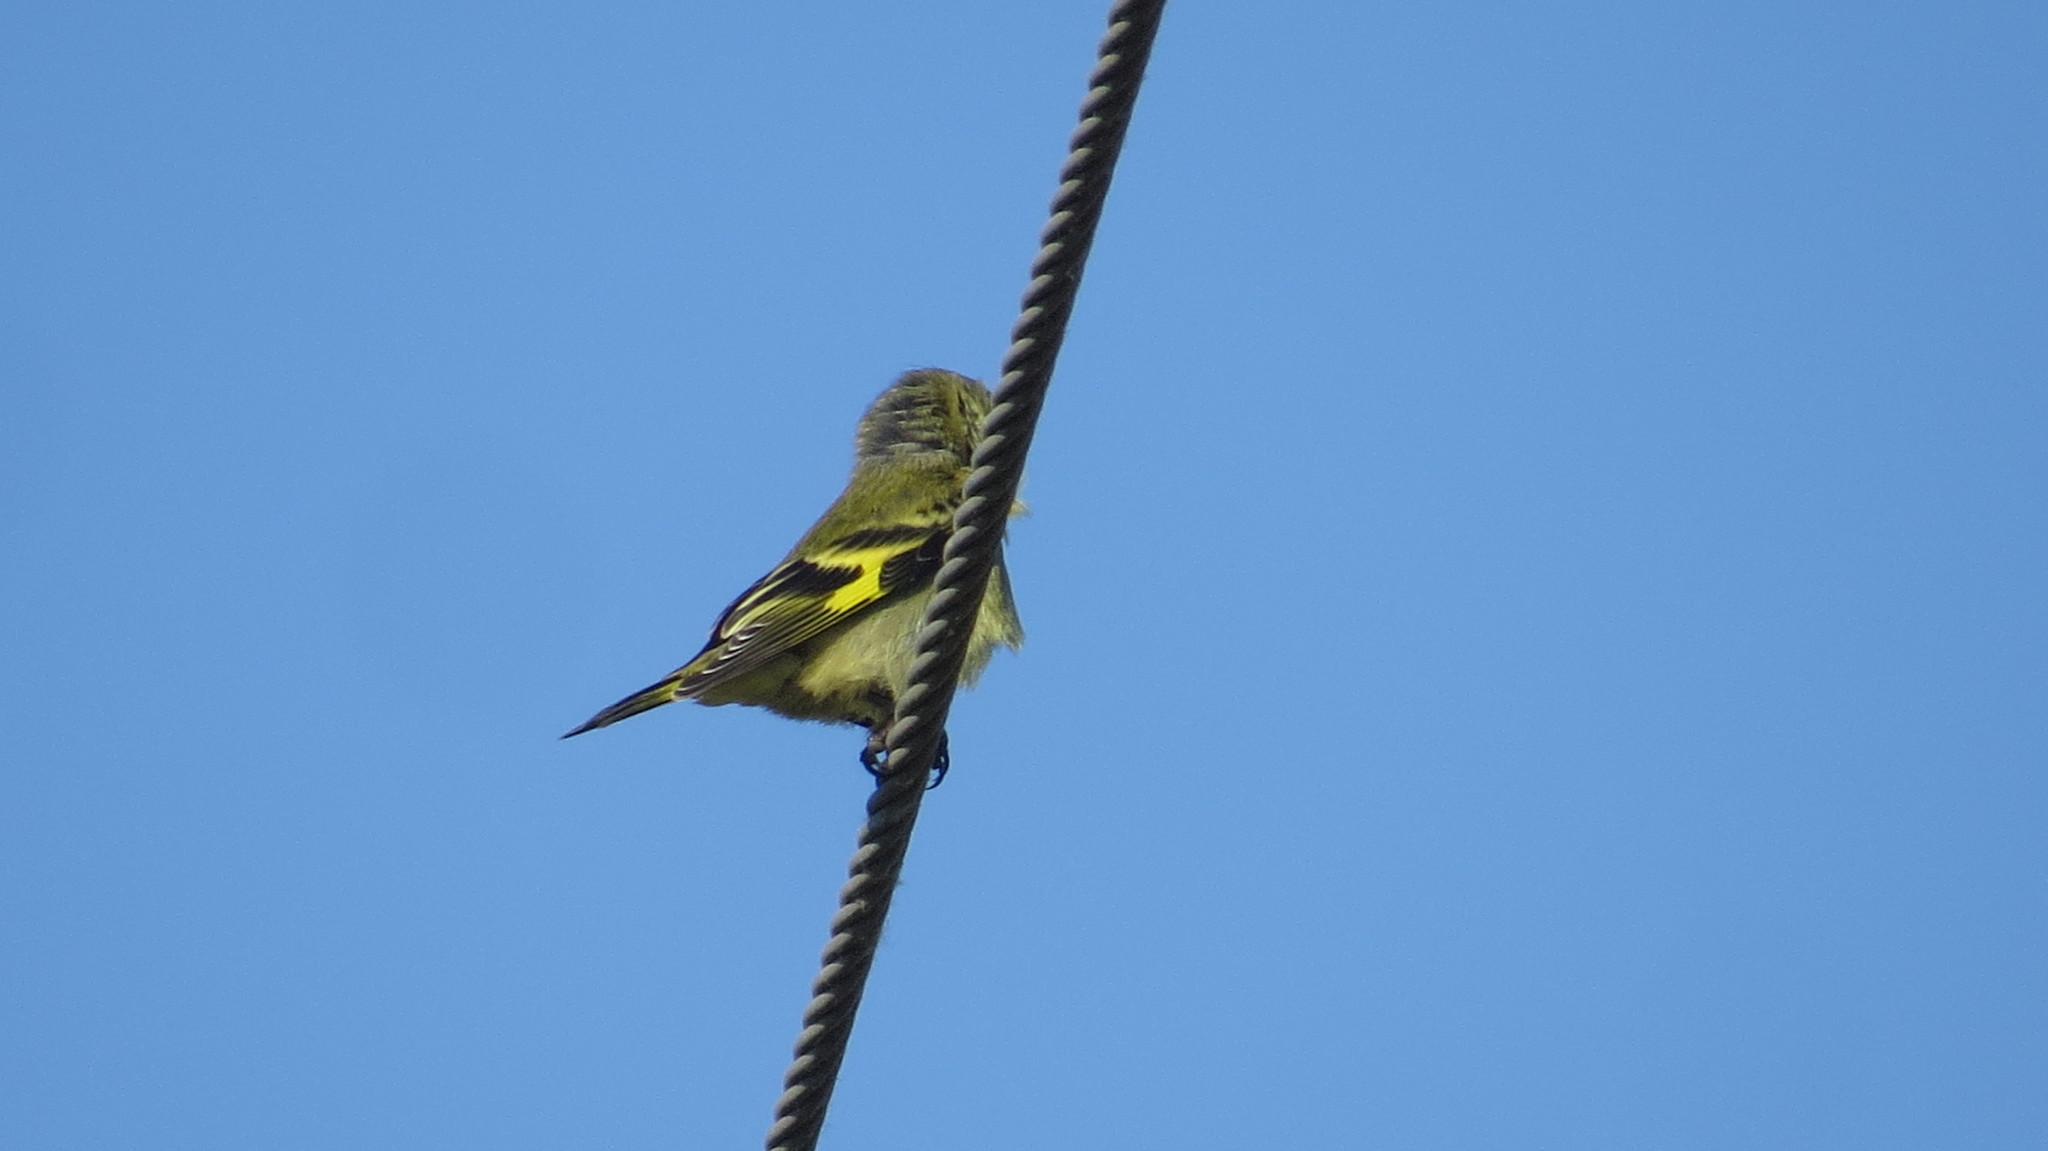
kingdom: Animalia
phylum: Chordata
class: Aves
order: Passeriformes
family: Fringillidae
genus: Spinus
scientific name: Spinus magellanicus
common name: Hooded siskin
